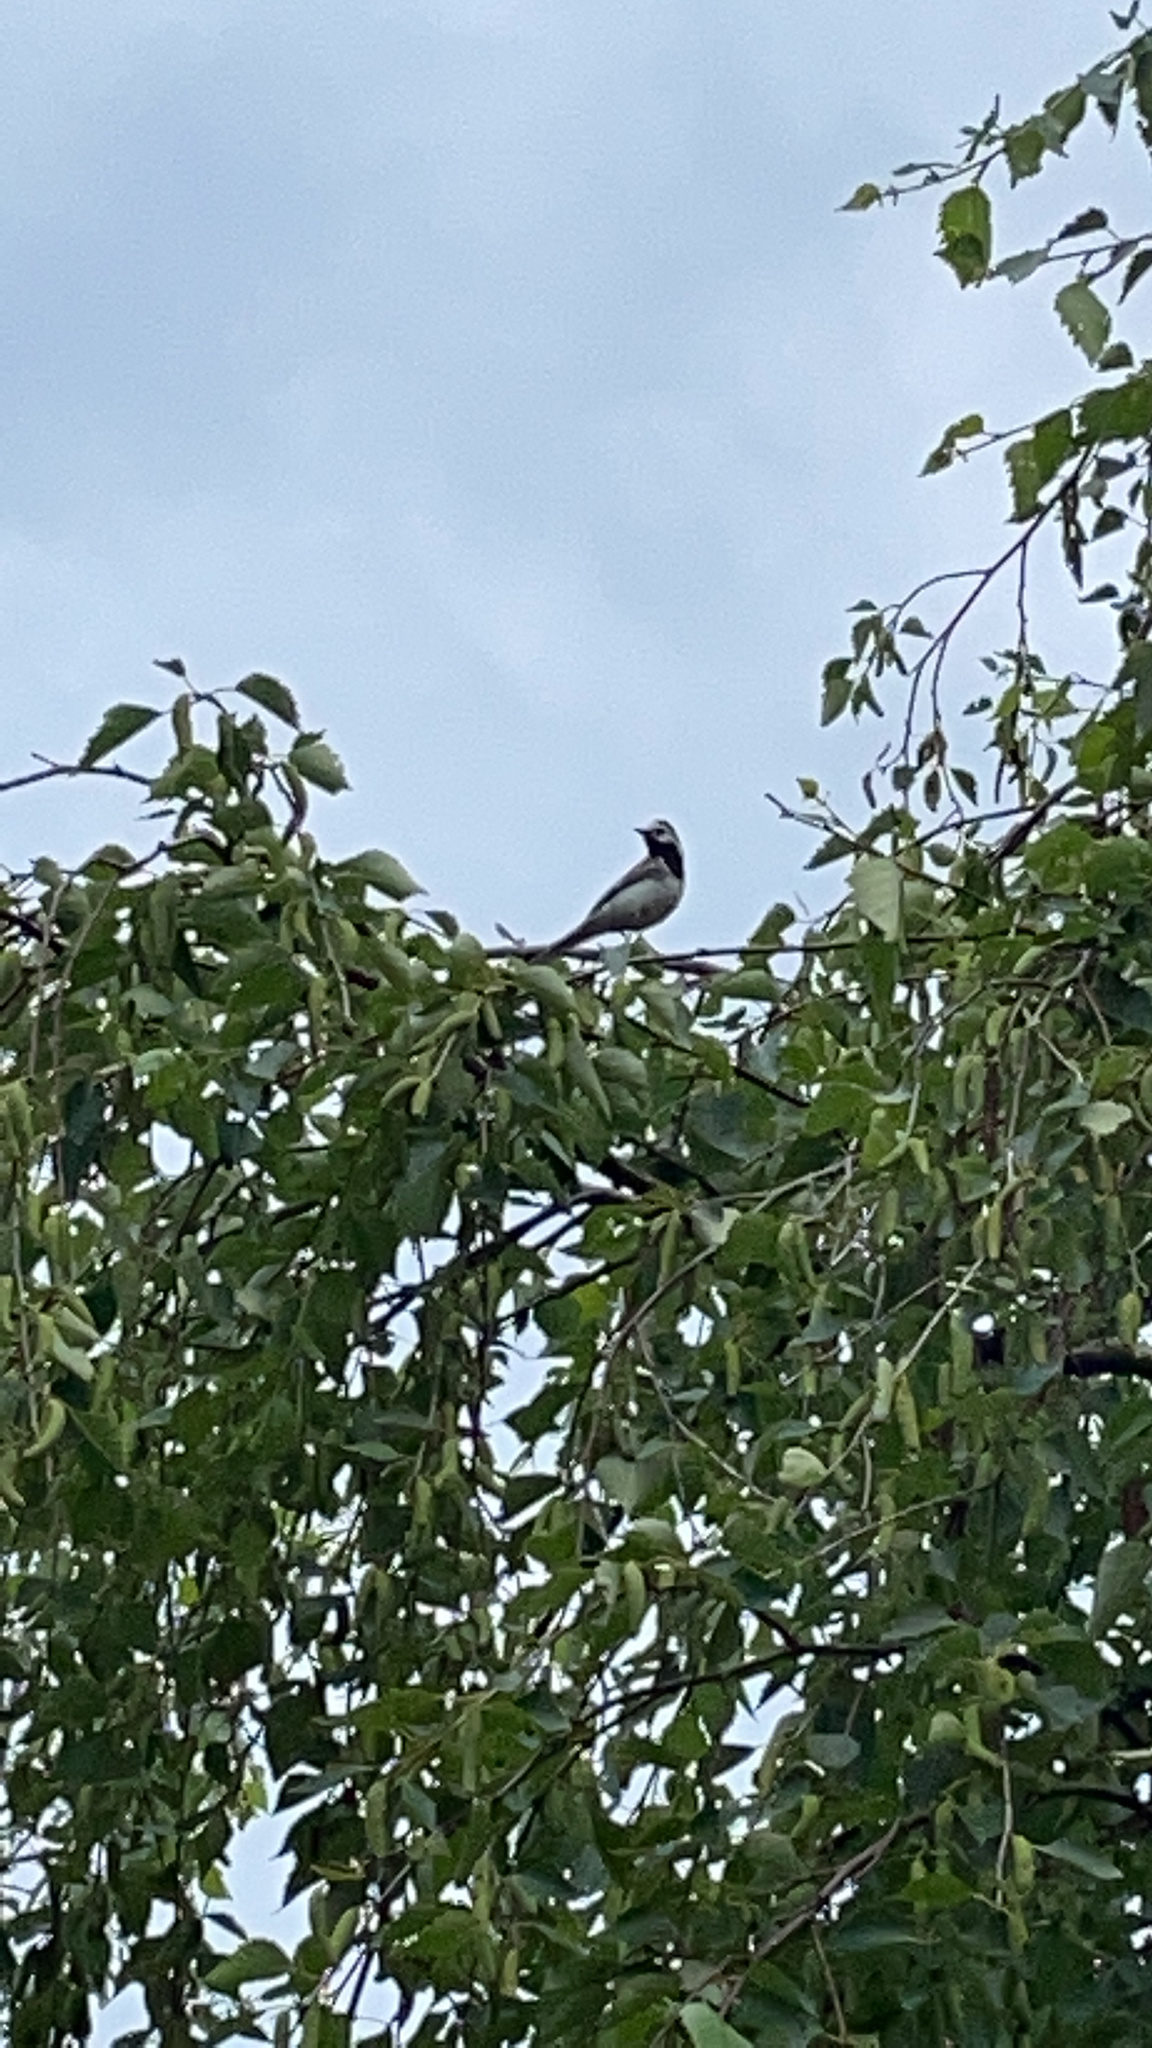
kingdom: Animalia
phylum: Chordata
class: Aves
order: Passeriformes
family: Motacillidae
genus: Motacilla
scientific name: Motacilla alba
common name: White wagtail
